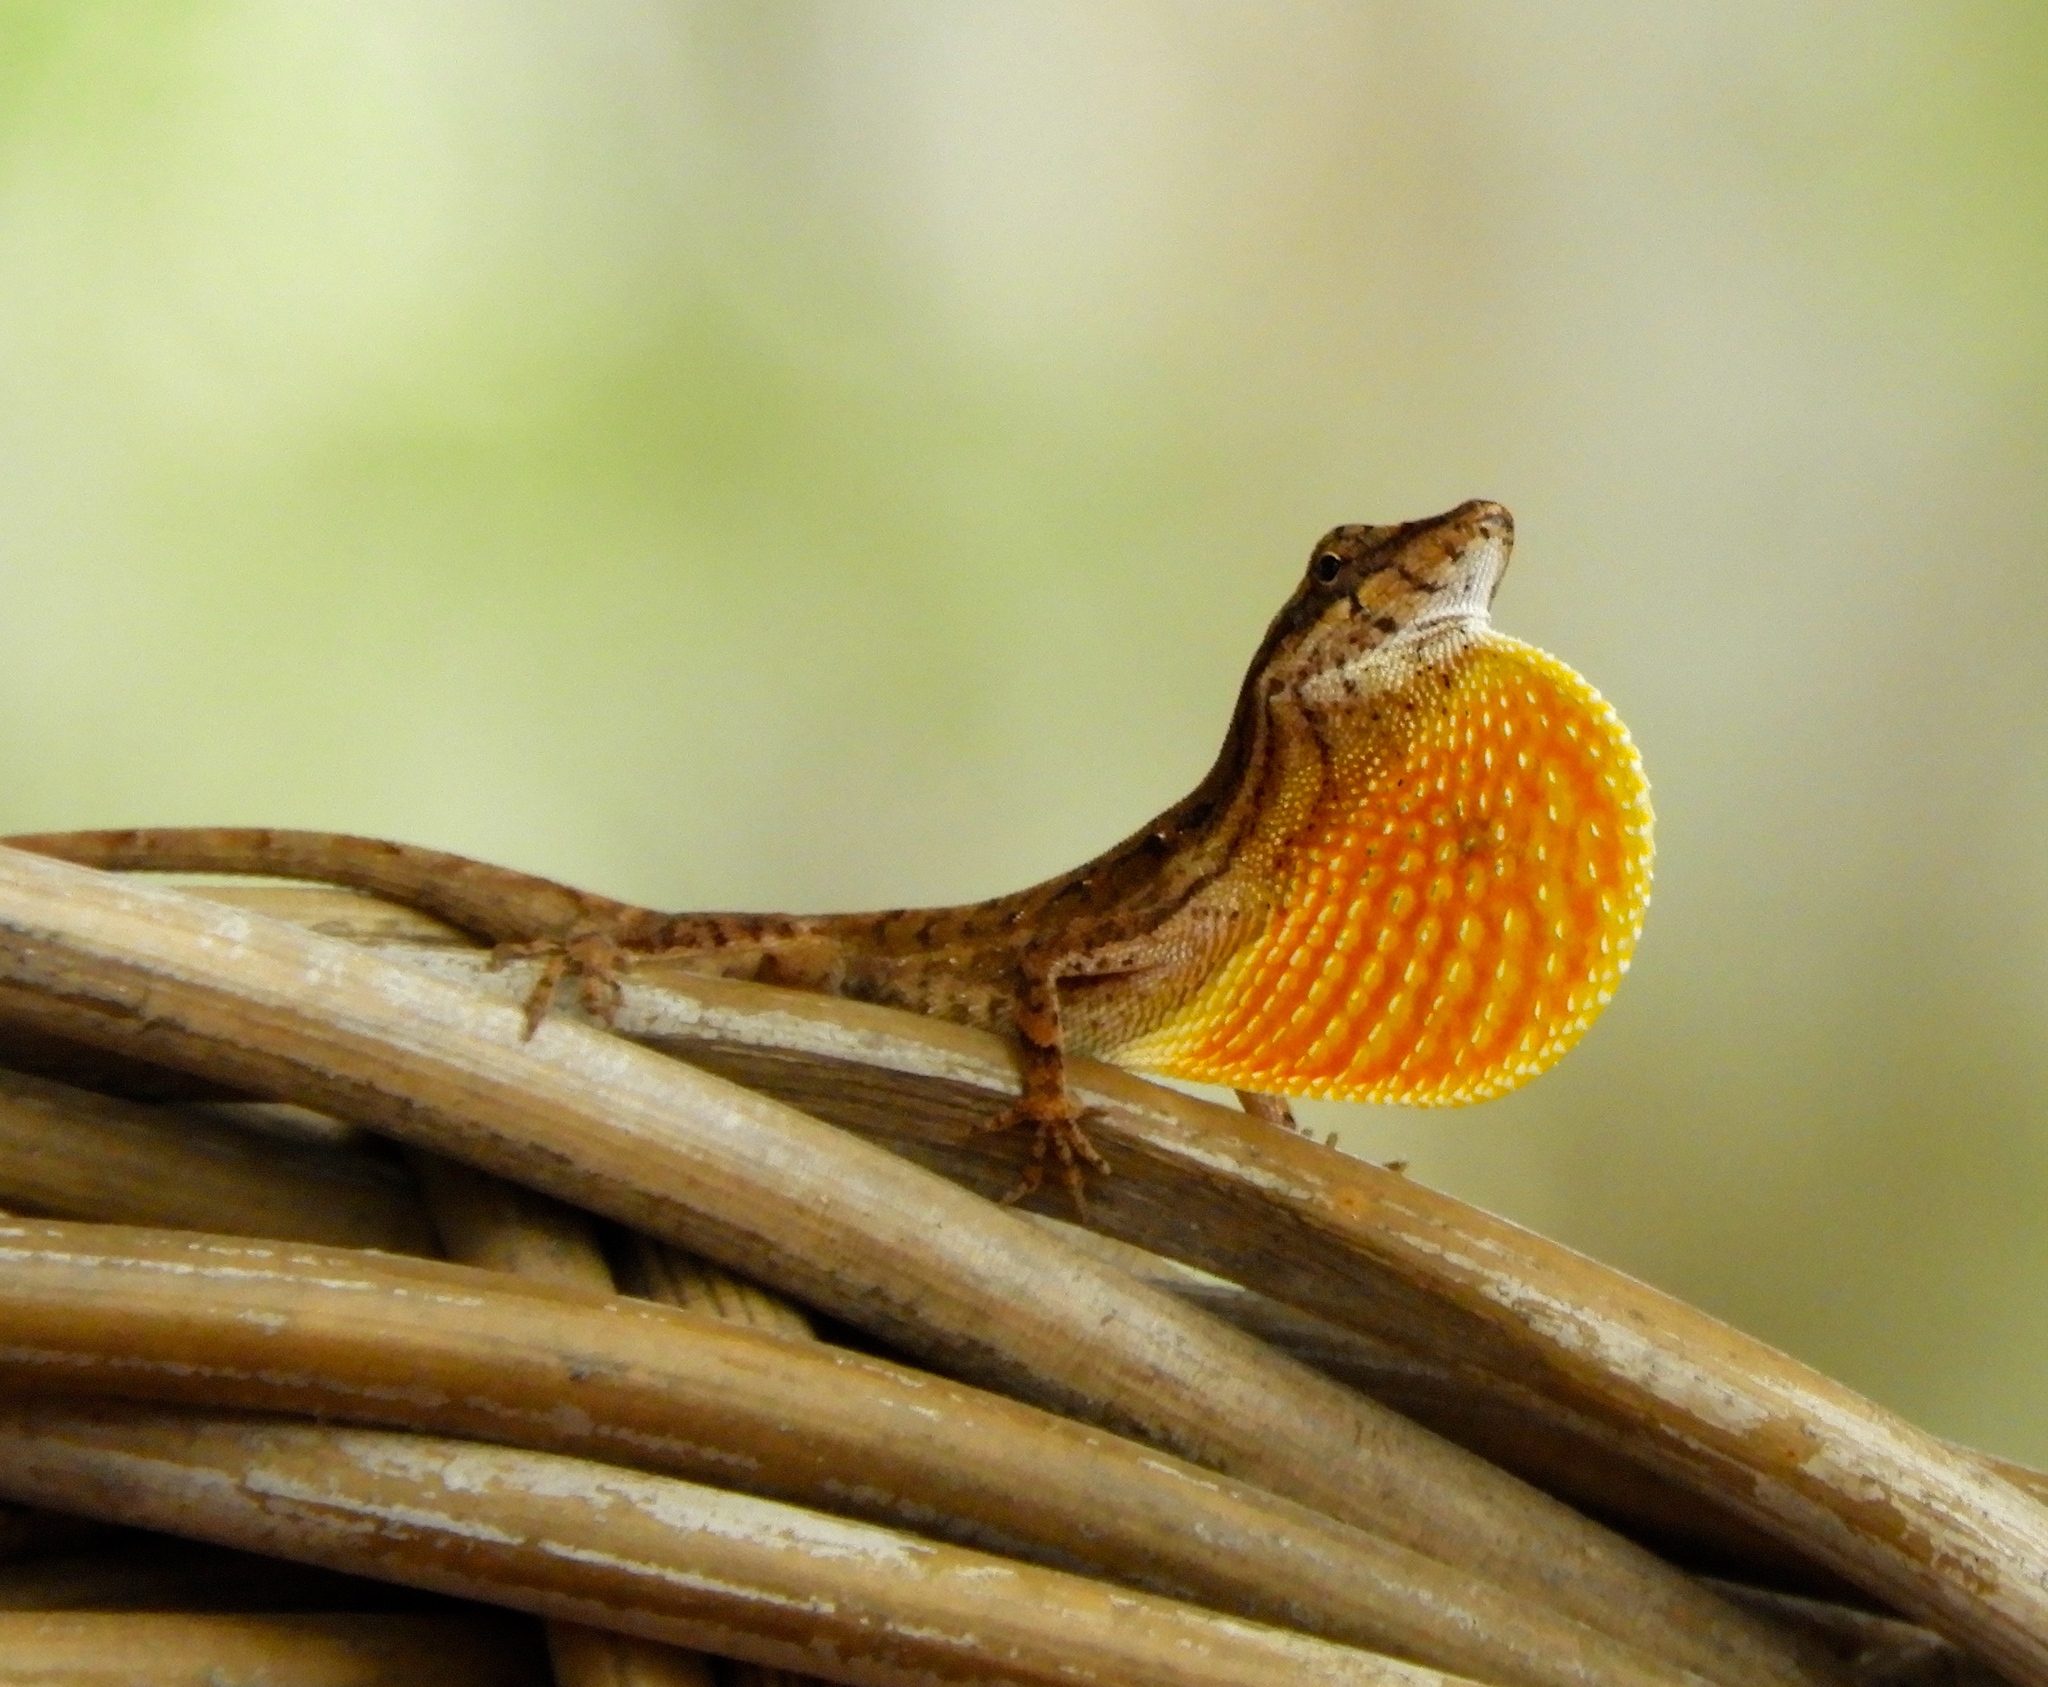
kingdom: Animalia
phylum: Chordata
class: Squamata
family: Dactyloidae
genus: Anolis
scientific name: Anolis nebulosus
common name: Clouded anole
